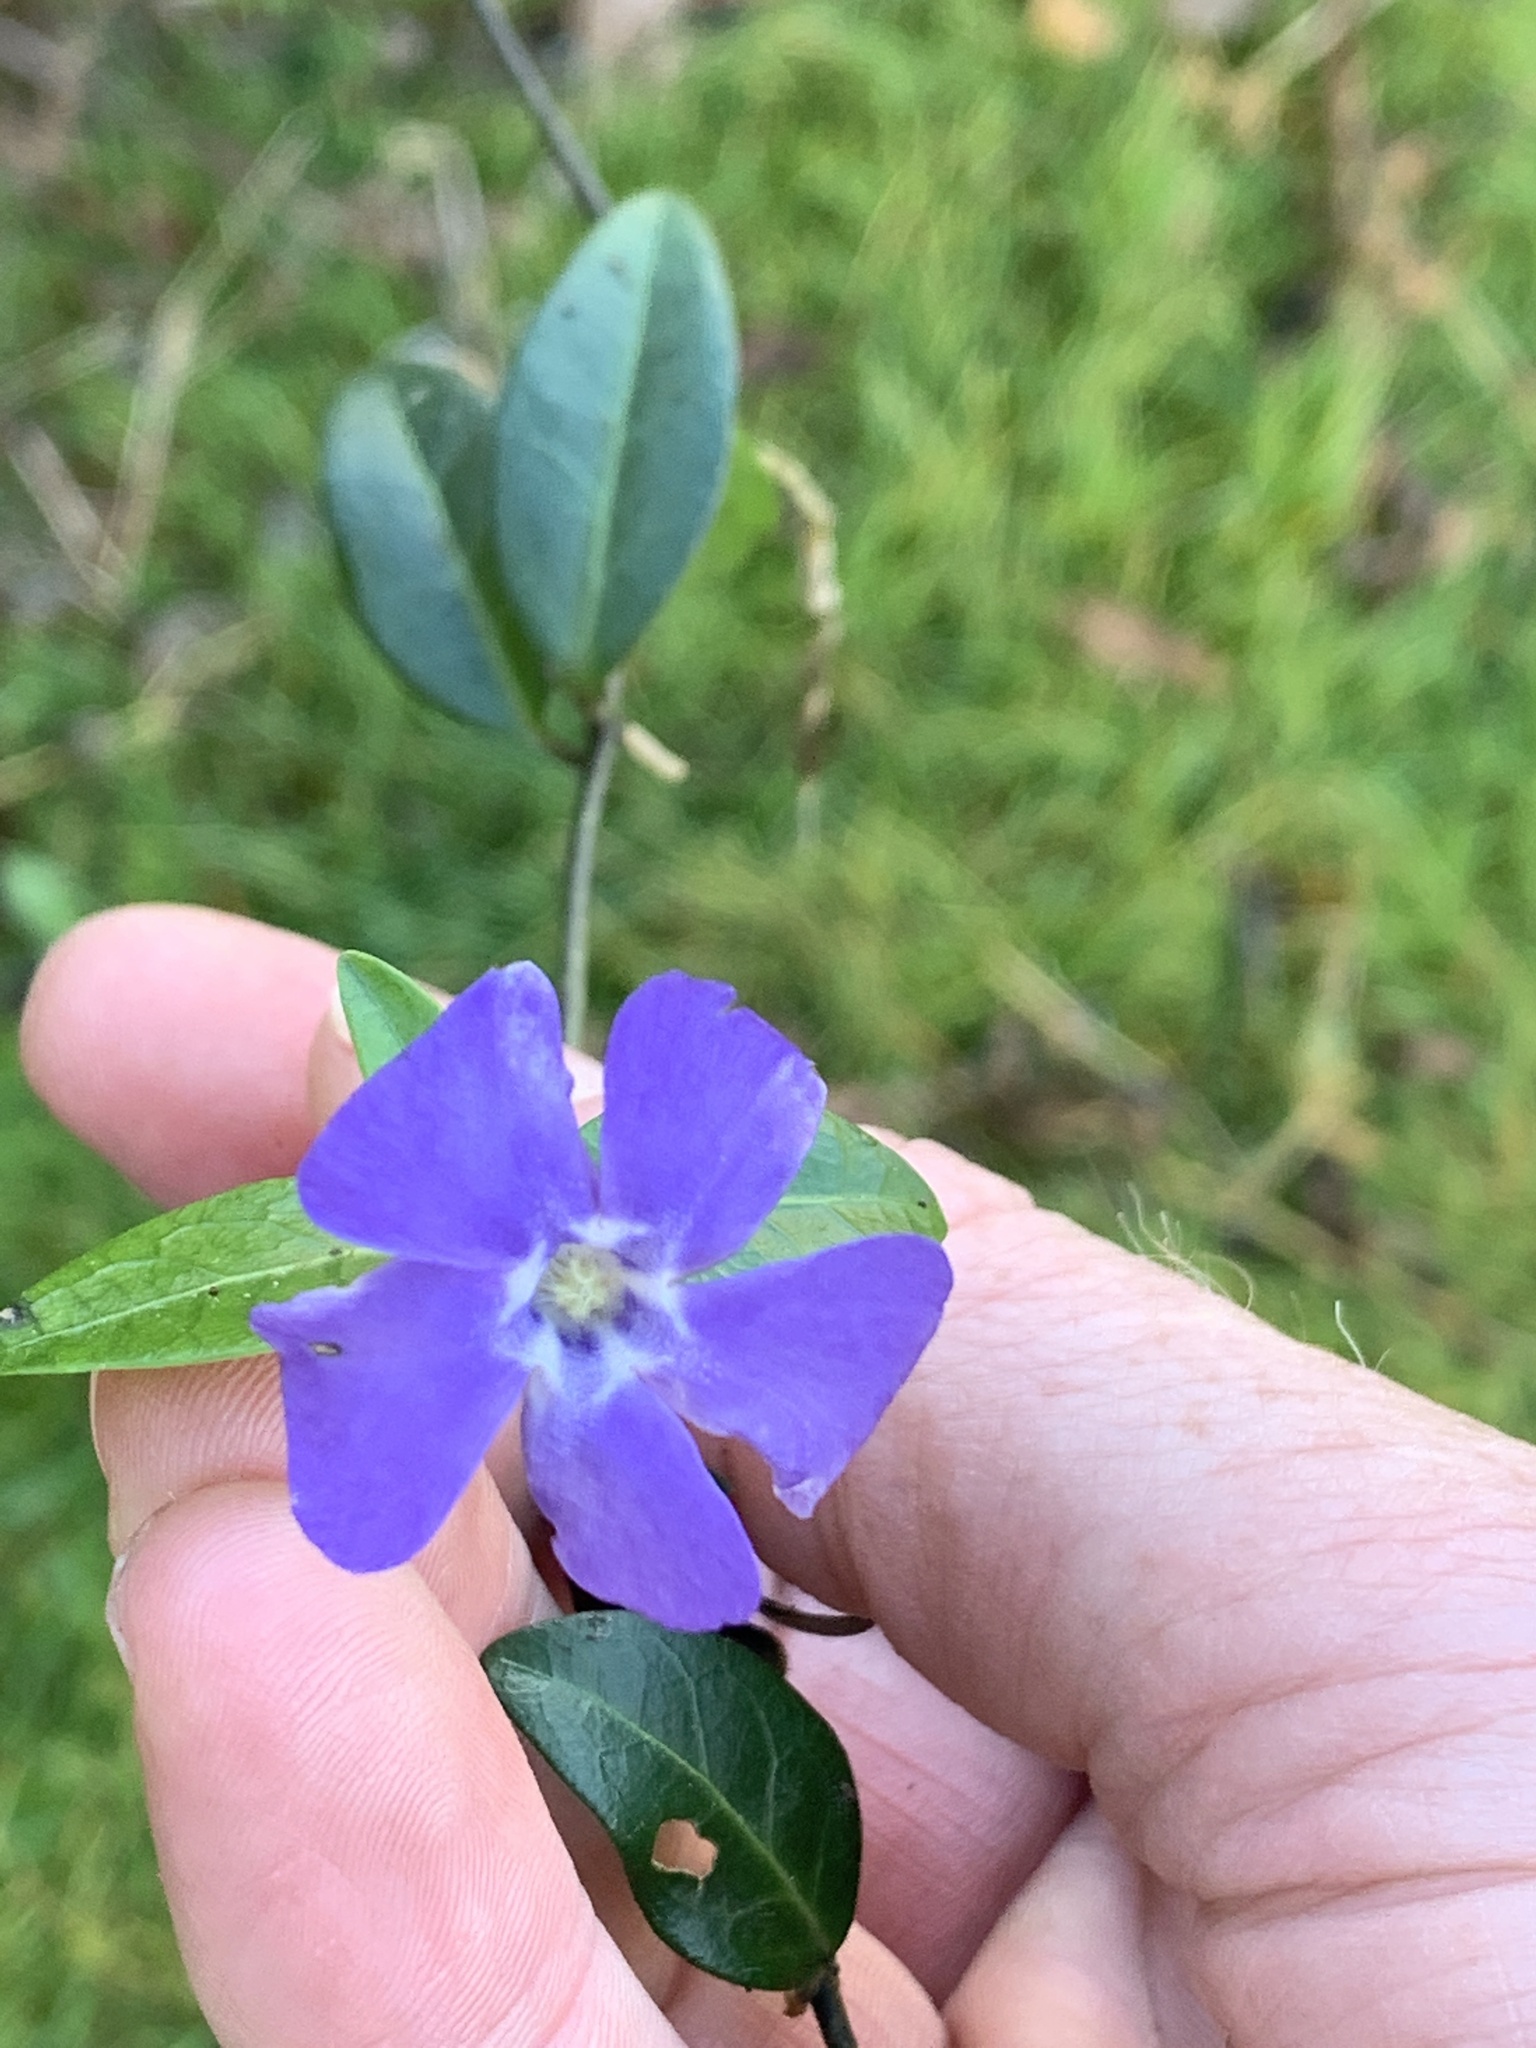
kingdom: Plantae
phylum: Tracheophyta
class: Magnoliopsida
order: Gentianales
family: Apocynaceae
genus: Vinca
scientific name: Vinca minor
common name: Lesser periwinkle
